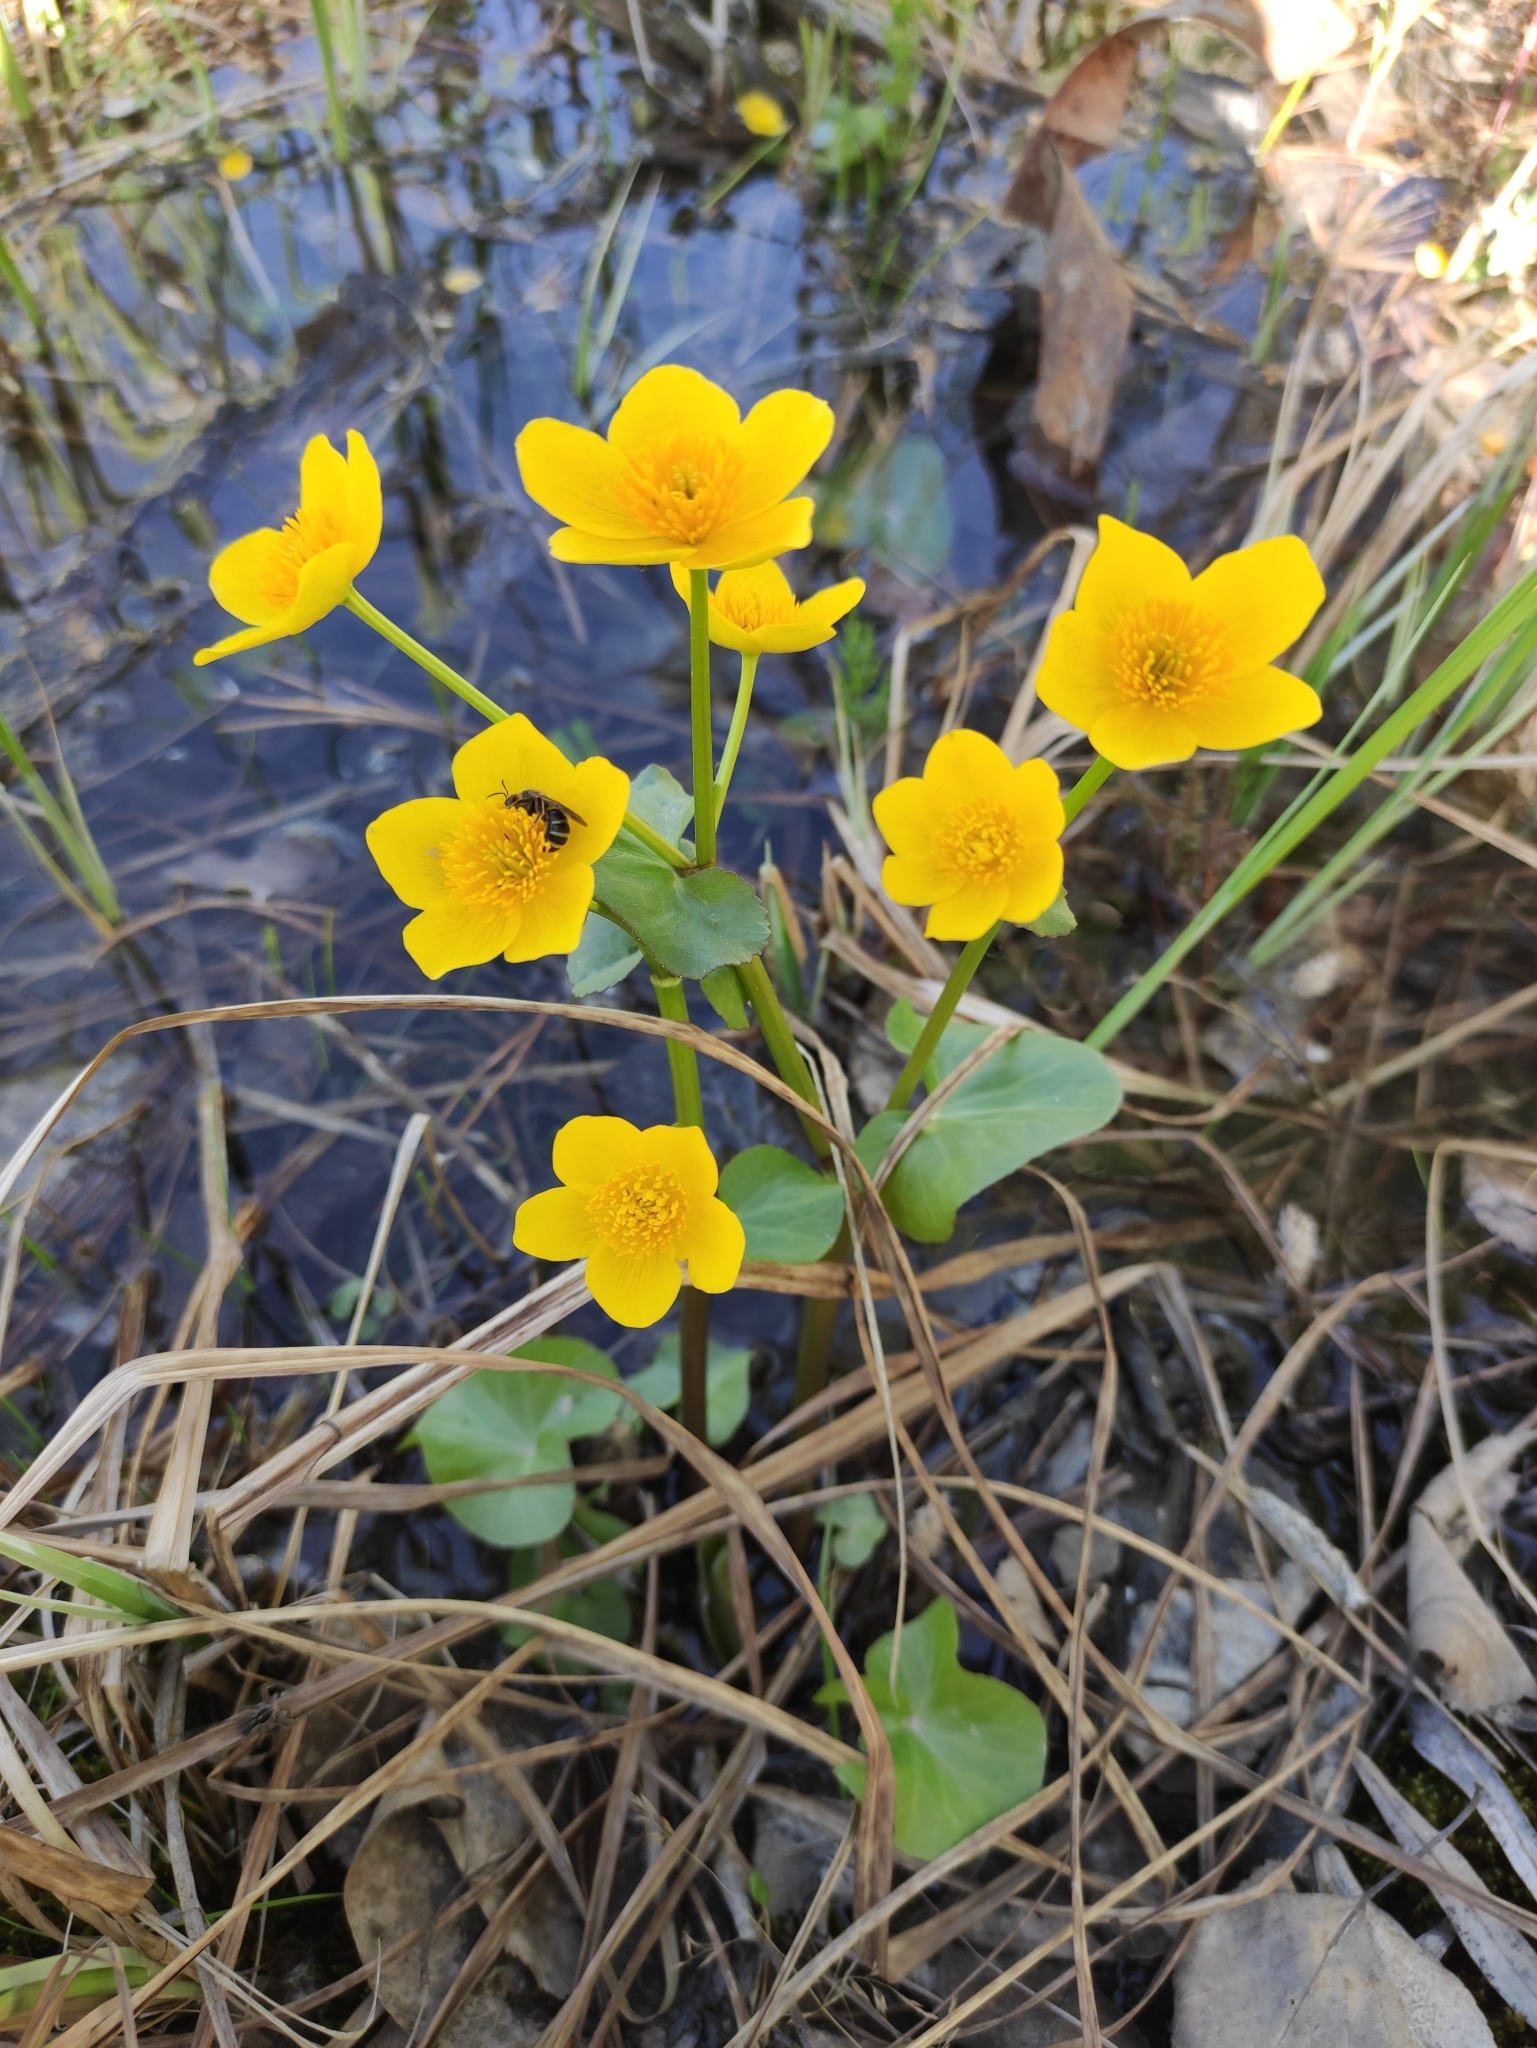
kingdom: Plantae
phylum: Tracheophyta
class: Magnoliopsida
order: Ranunculales
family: Ranunculaceae
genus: Caltha
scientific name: Caltha palustris
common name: Marsh marigold
